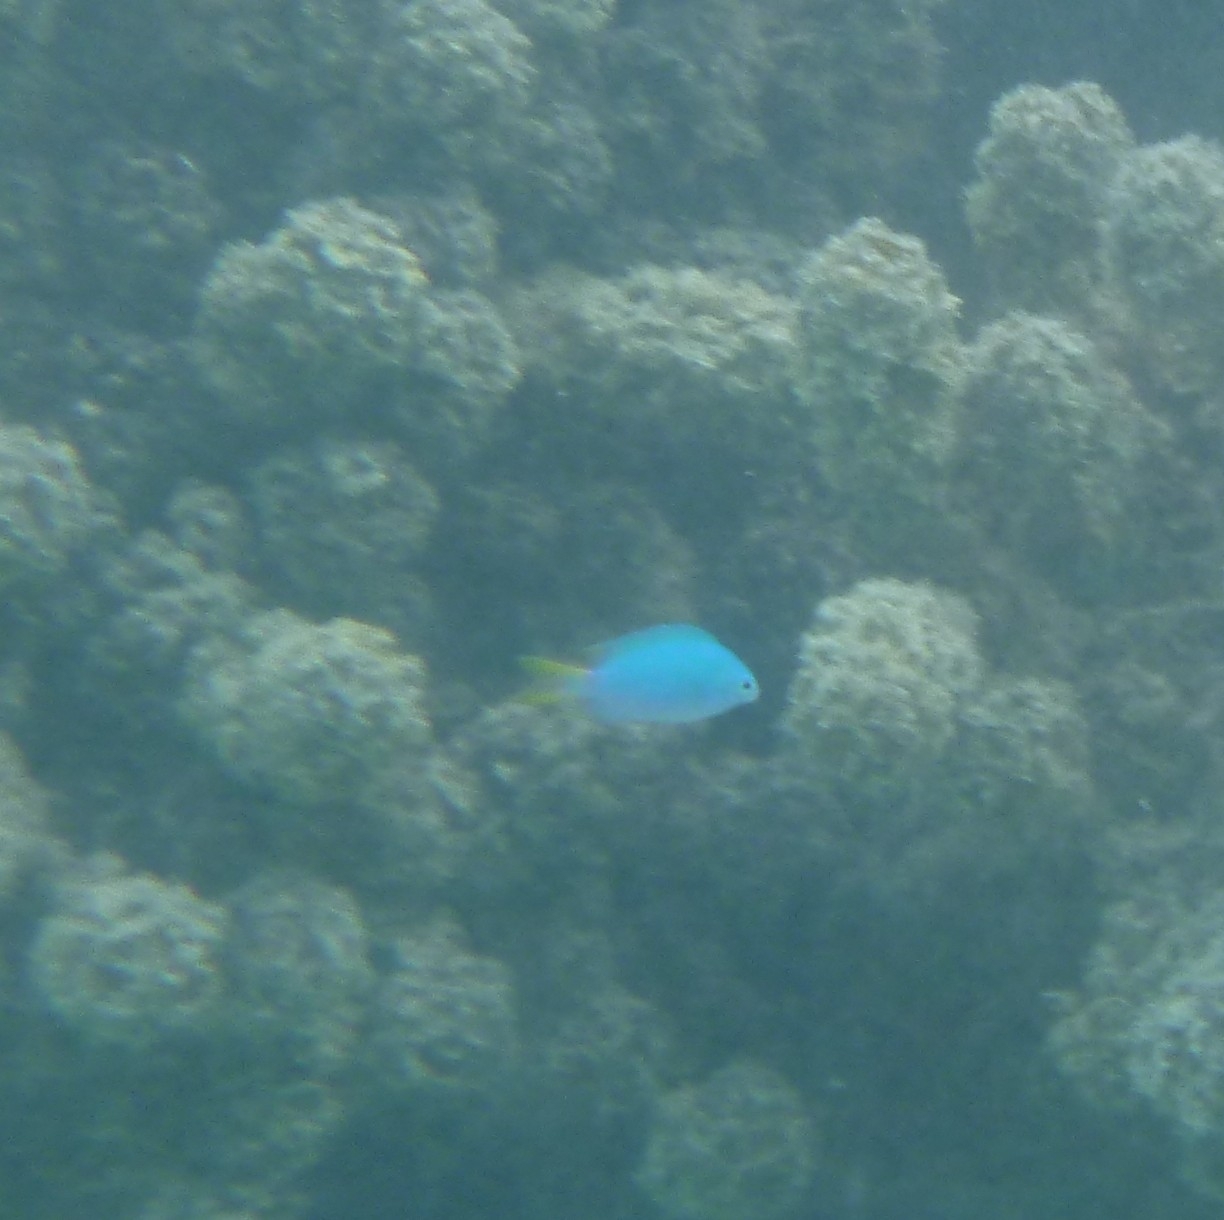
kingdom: Animalia
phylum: Chordata
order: Perciformes
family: Pomacentridae
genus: Pomacentrus
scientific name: Pomacentrus pavo
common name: Sapphire damsel
